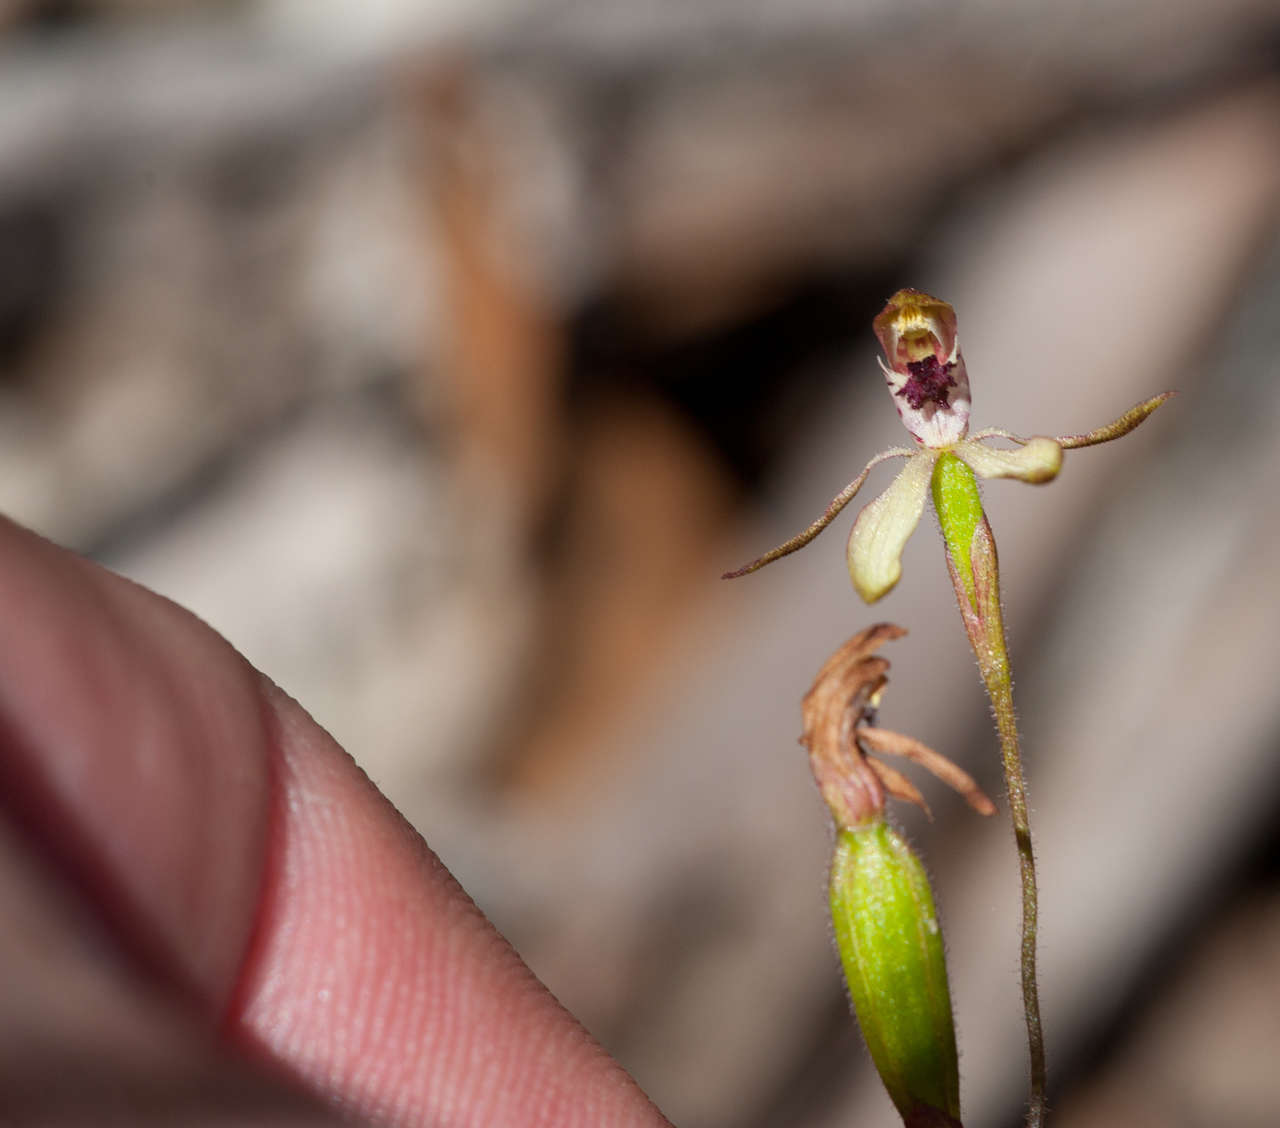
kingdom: Plantae
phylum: Tracheophyta
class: Liliopsida
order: Asparagales
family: Orchidaceae
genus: Caladenia
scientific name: Caladenia transitoria
